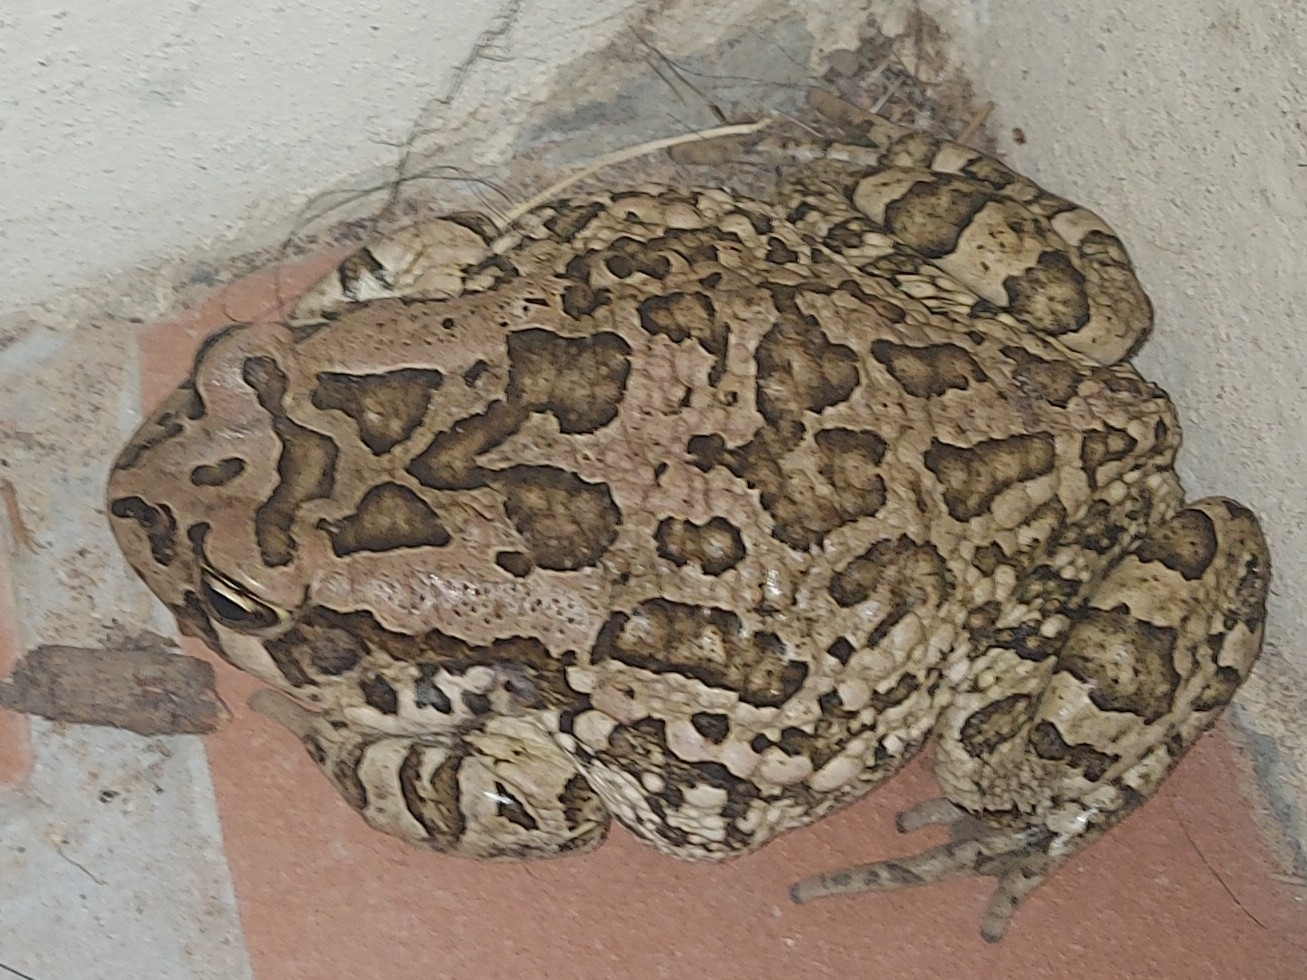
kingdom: Animalia
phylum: Chordata
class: Amphibia
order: Anura
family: Bufonidae
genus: Sclerophrys
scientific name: Sclerophrys capensis
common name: Ranger’s toad
